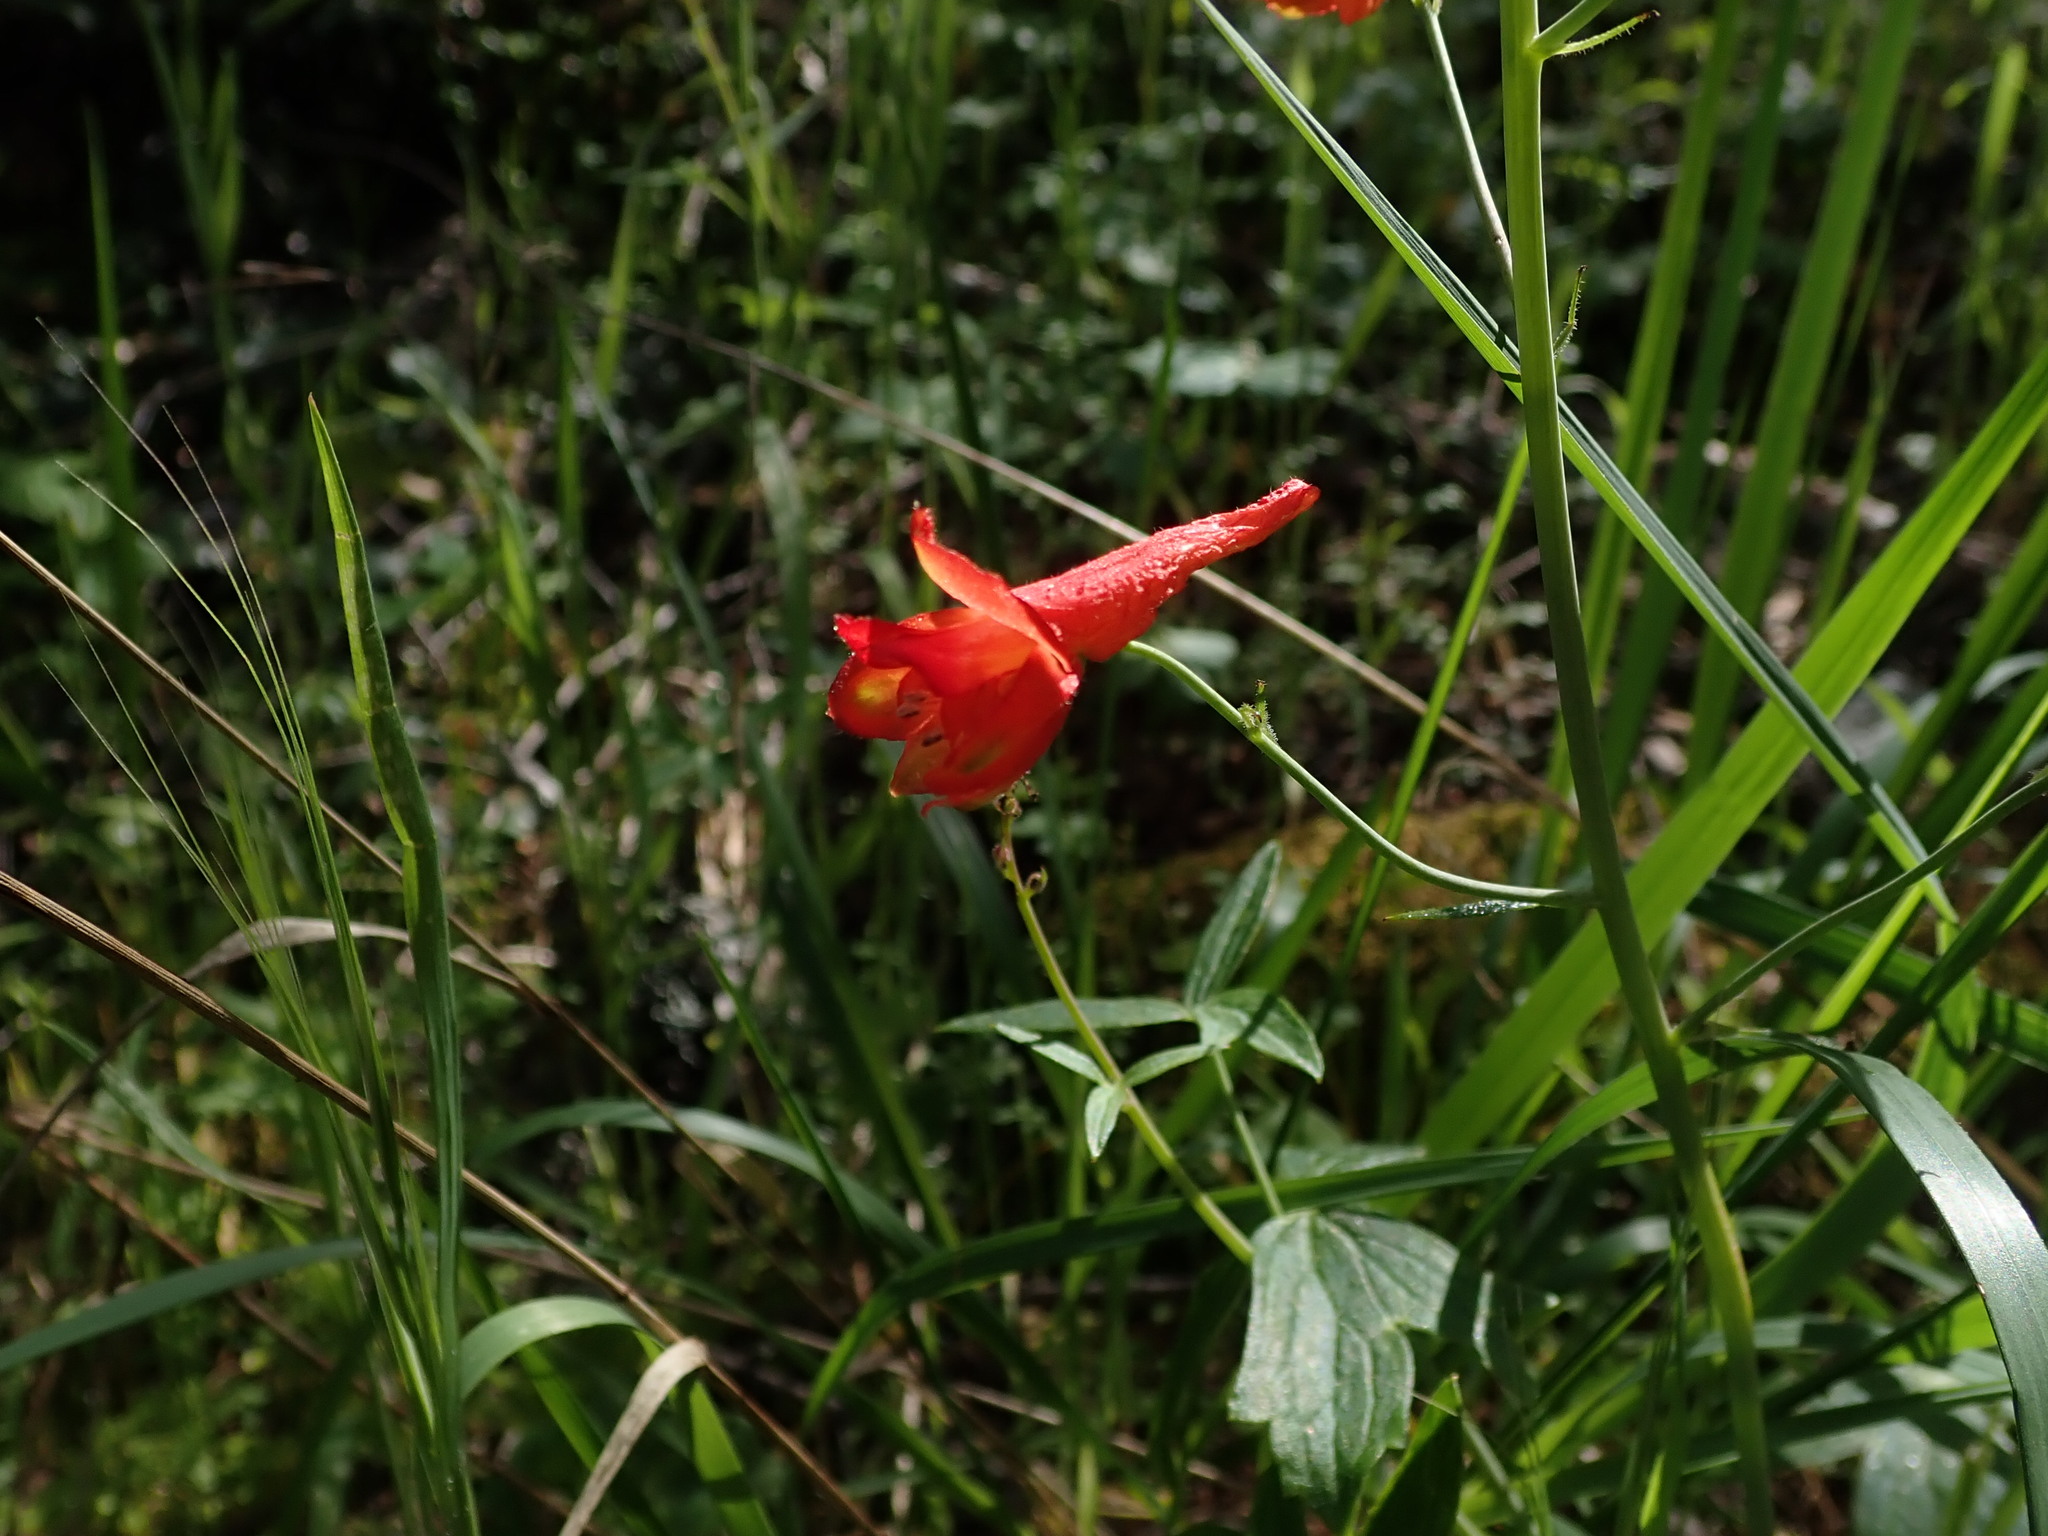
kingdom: Plantae
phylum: Tracheophyta
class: Magnoliopsida
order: Ranunculales
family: Ranunculaceae
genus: Delphinium
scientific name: Delphinium nudicaule
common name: Red larkspur
